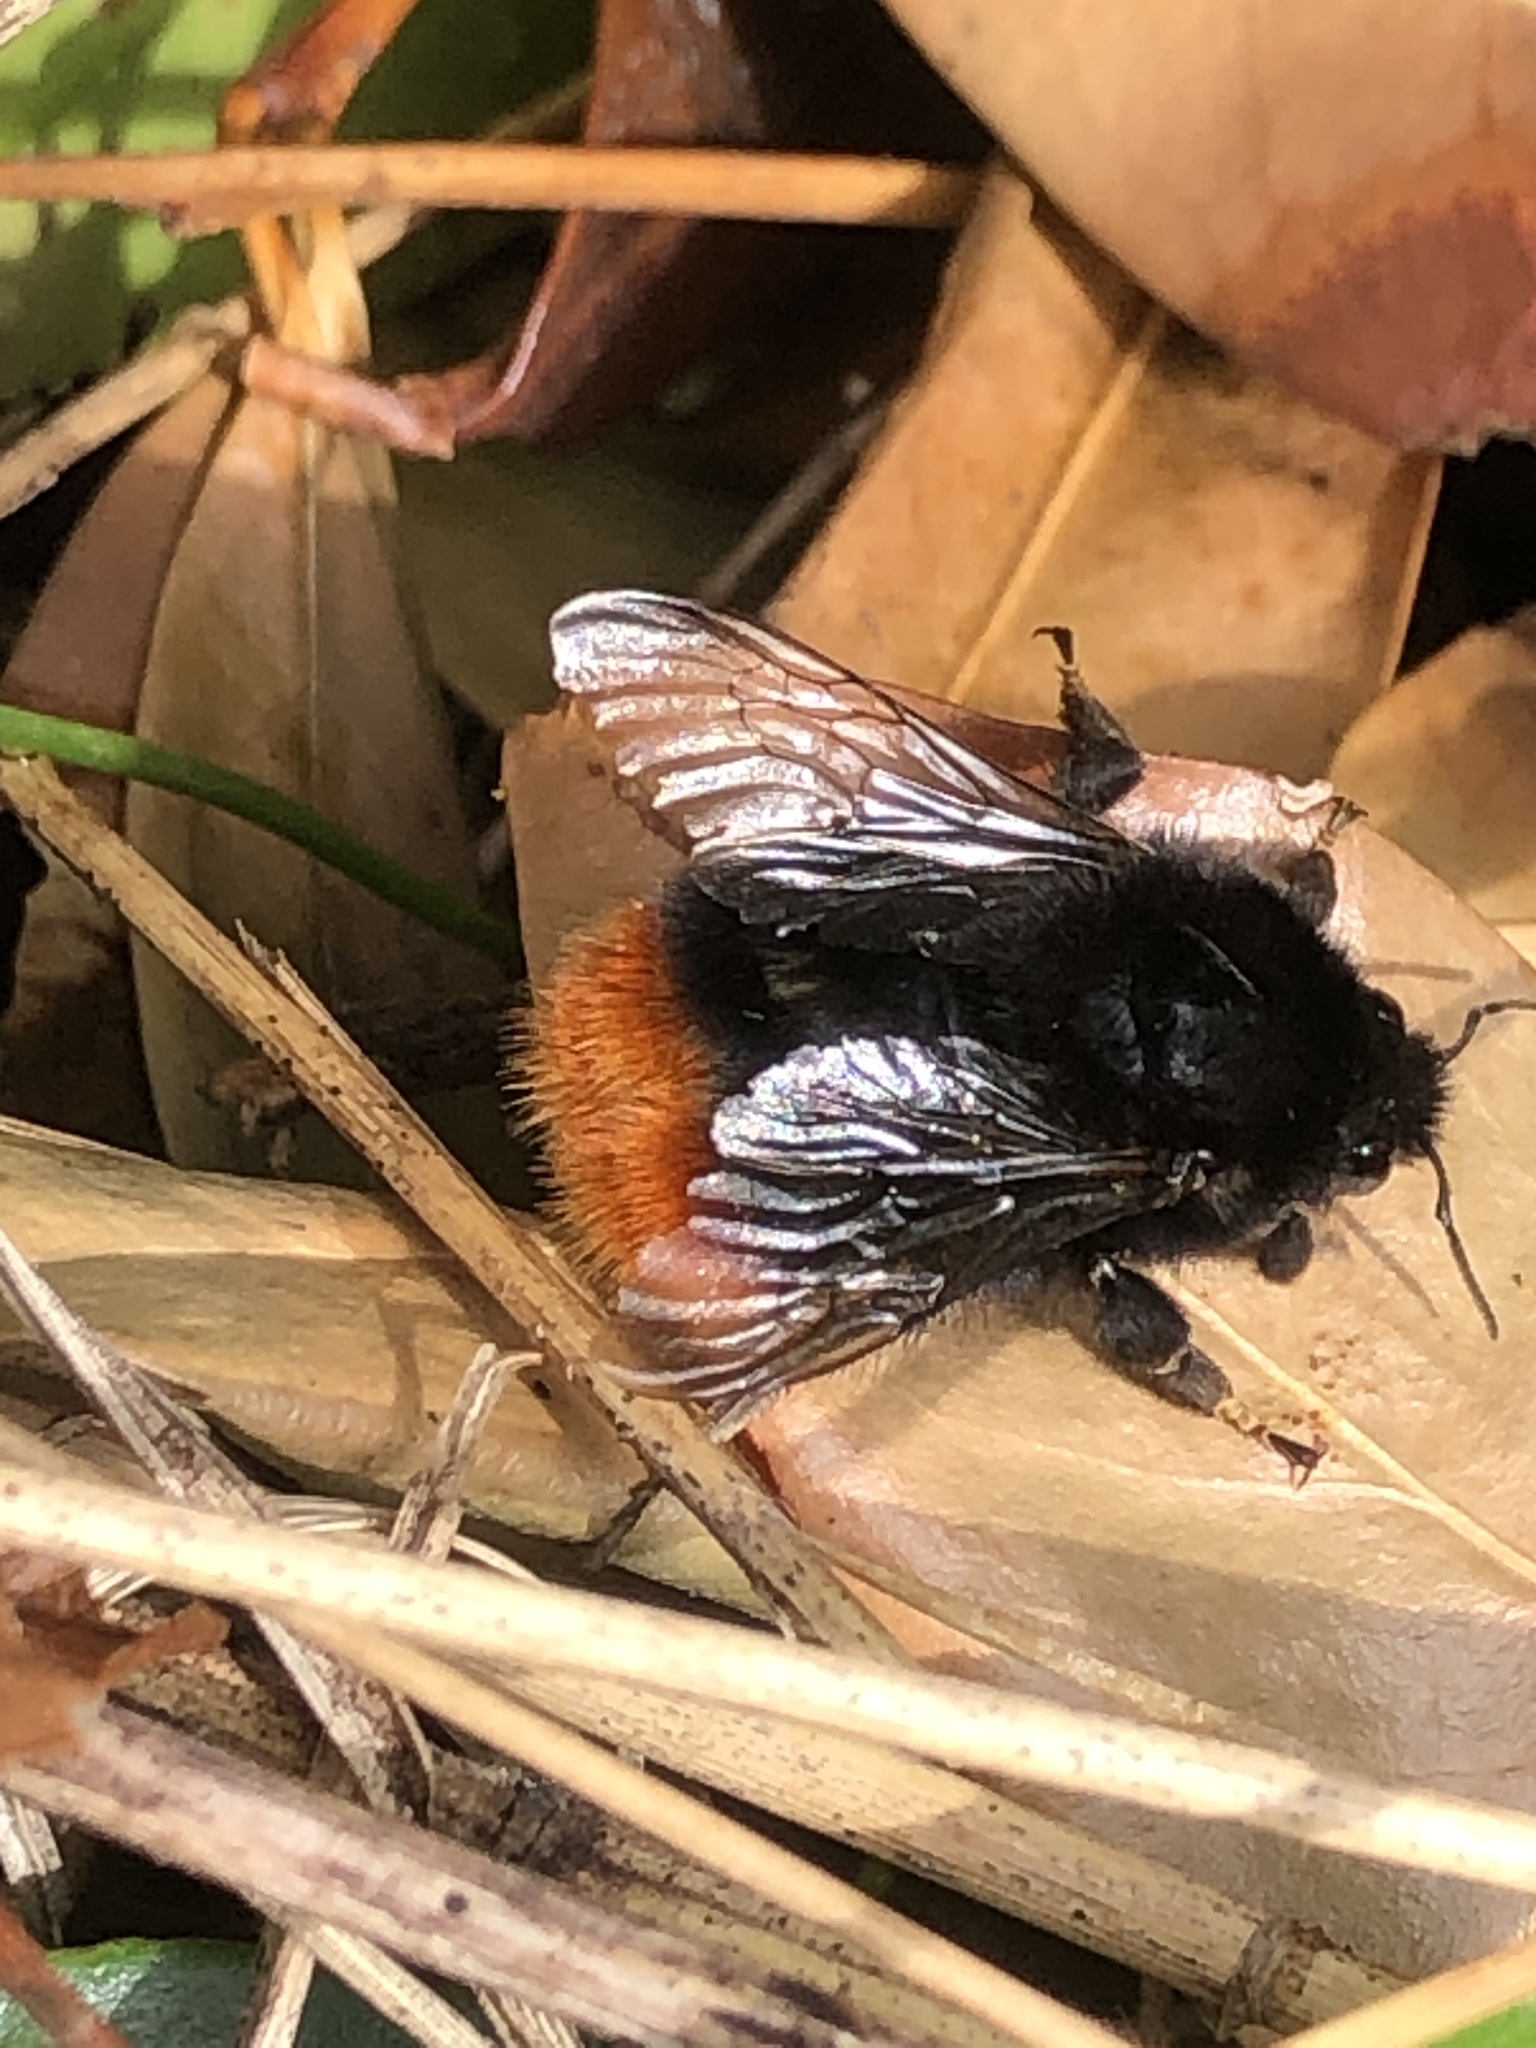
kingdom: Animalia
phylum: Arthropoda
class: Insecta
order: Hymenoptera
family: Apidae
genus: Bombus
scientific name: Bombus lapidarius
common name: Large red-tailed humble-bee
